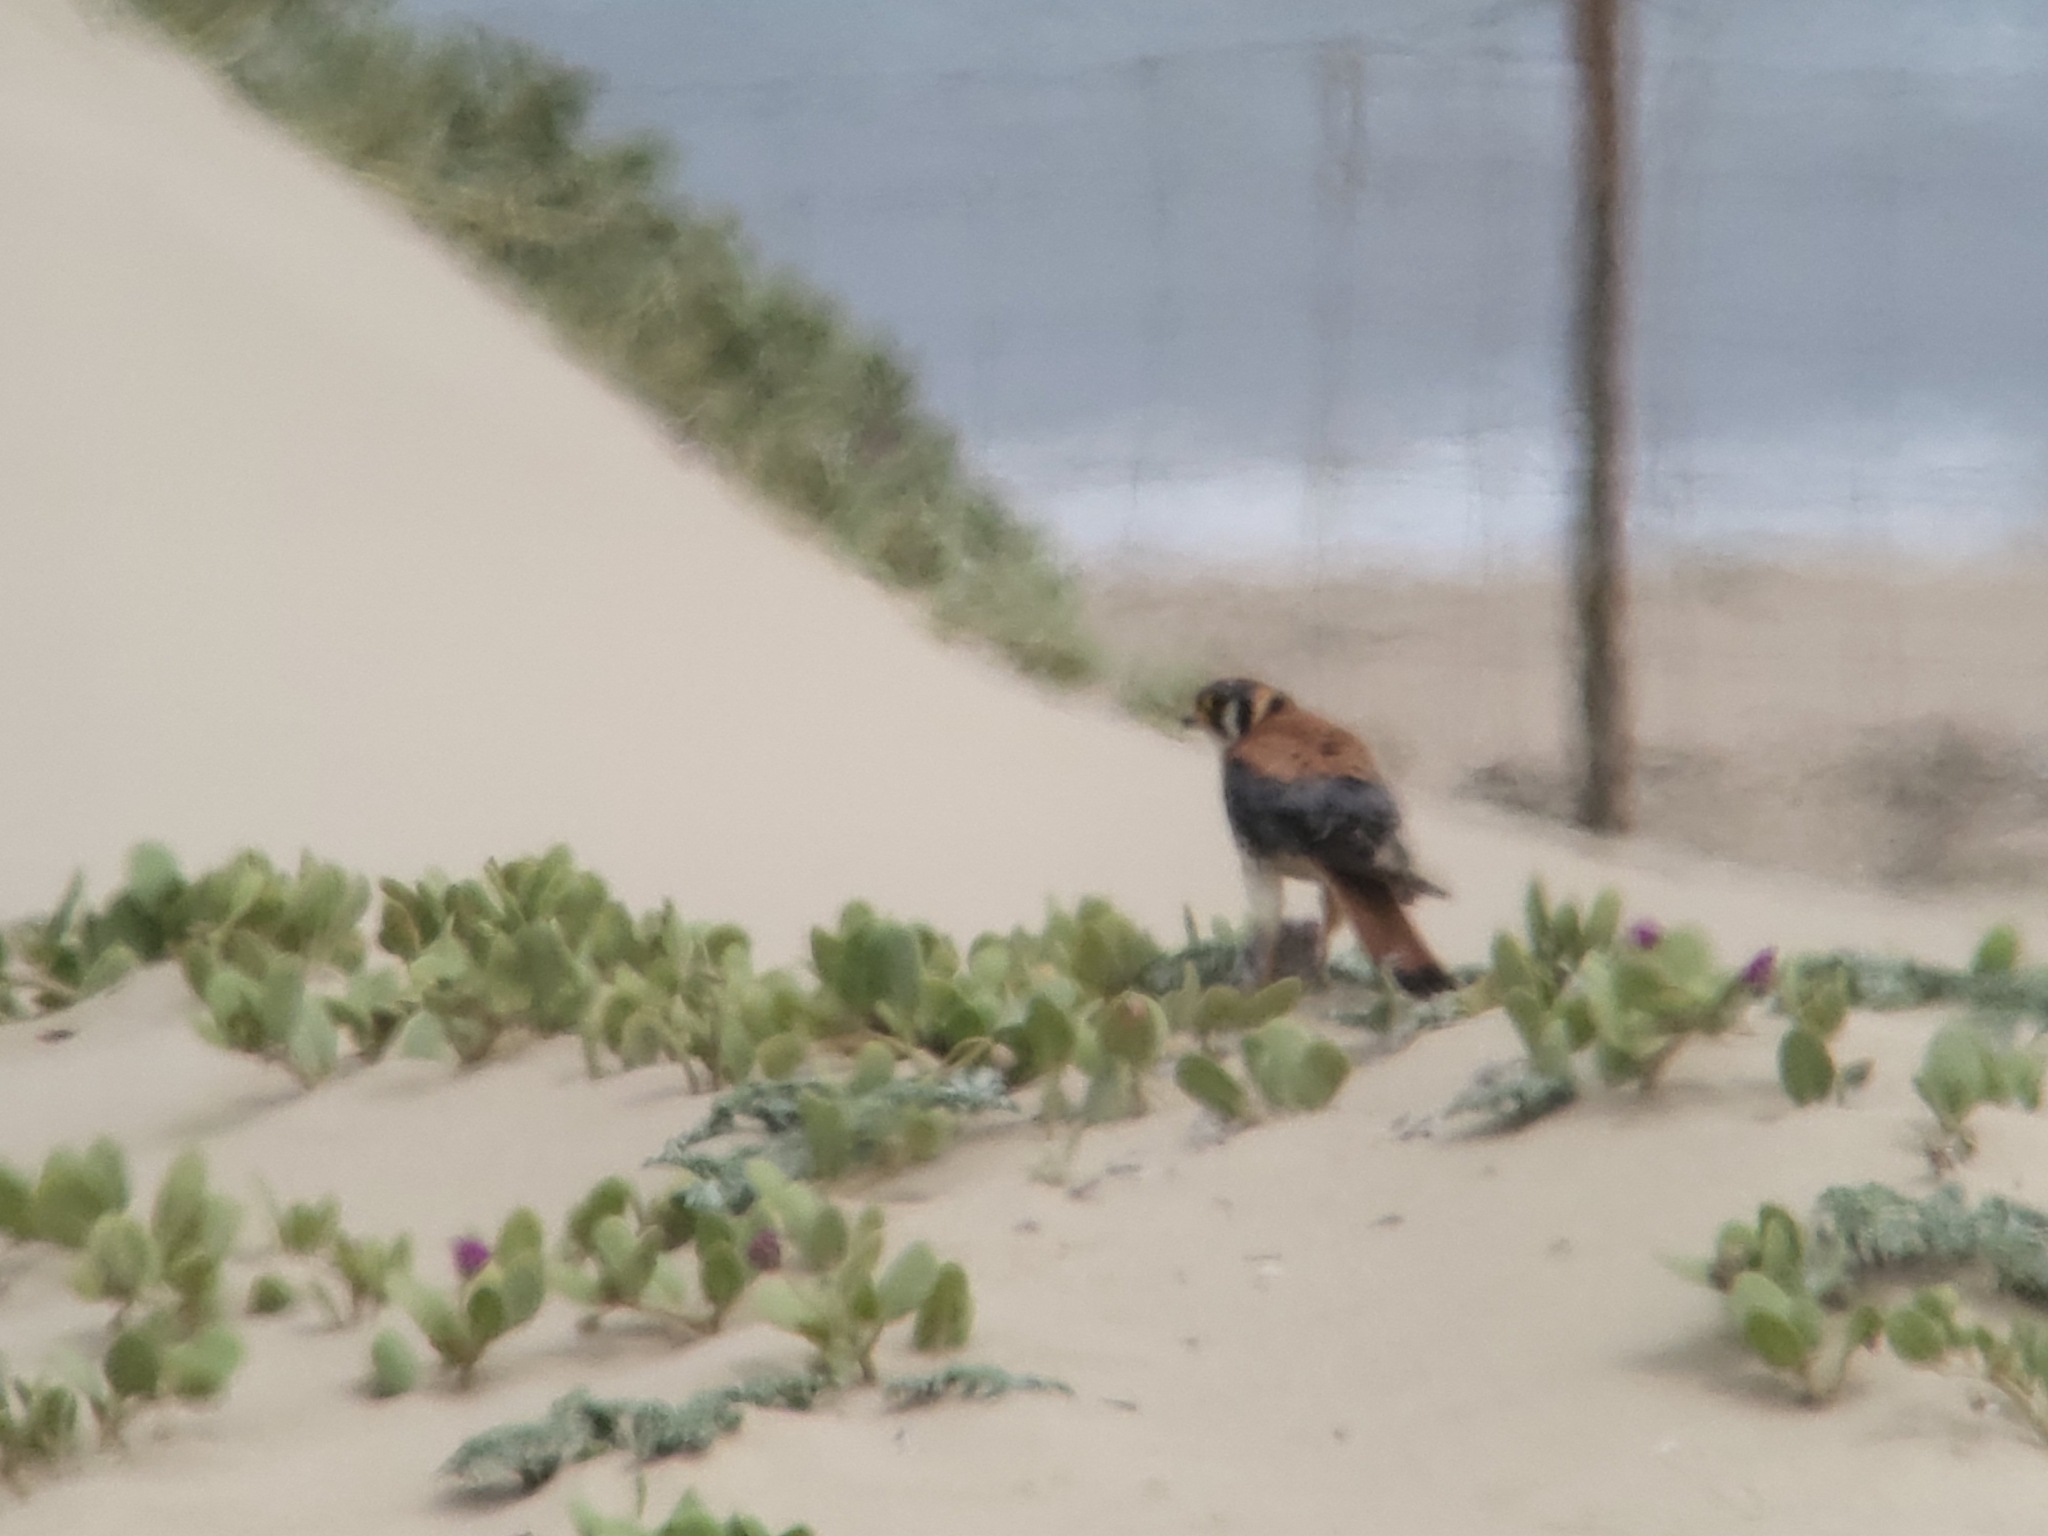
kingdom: Animalia
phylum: Chordata
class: Aves
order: Falconiformes
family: Falconidae
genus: Falco
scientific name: Falco sparverius
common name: American kestrel
